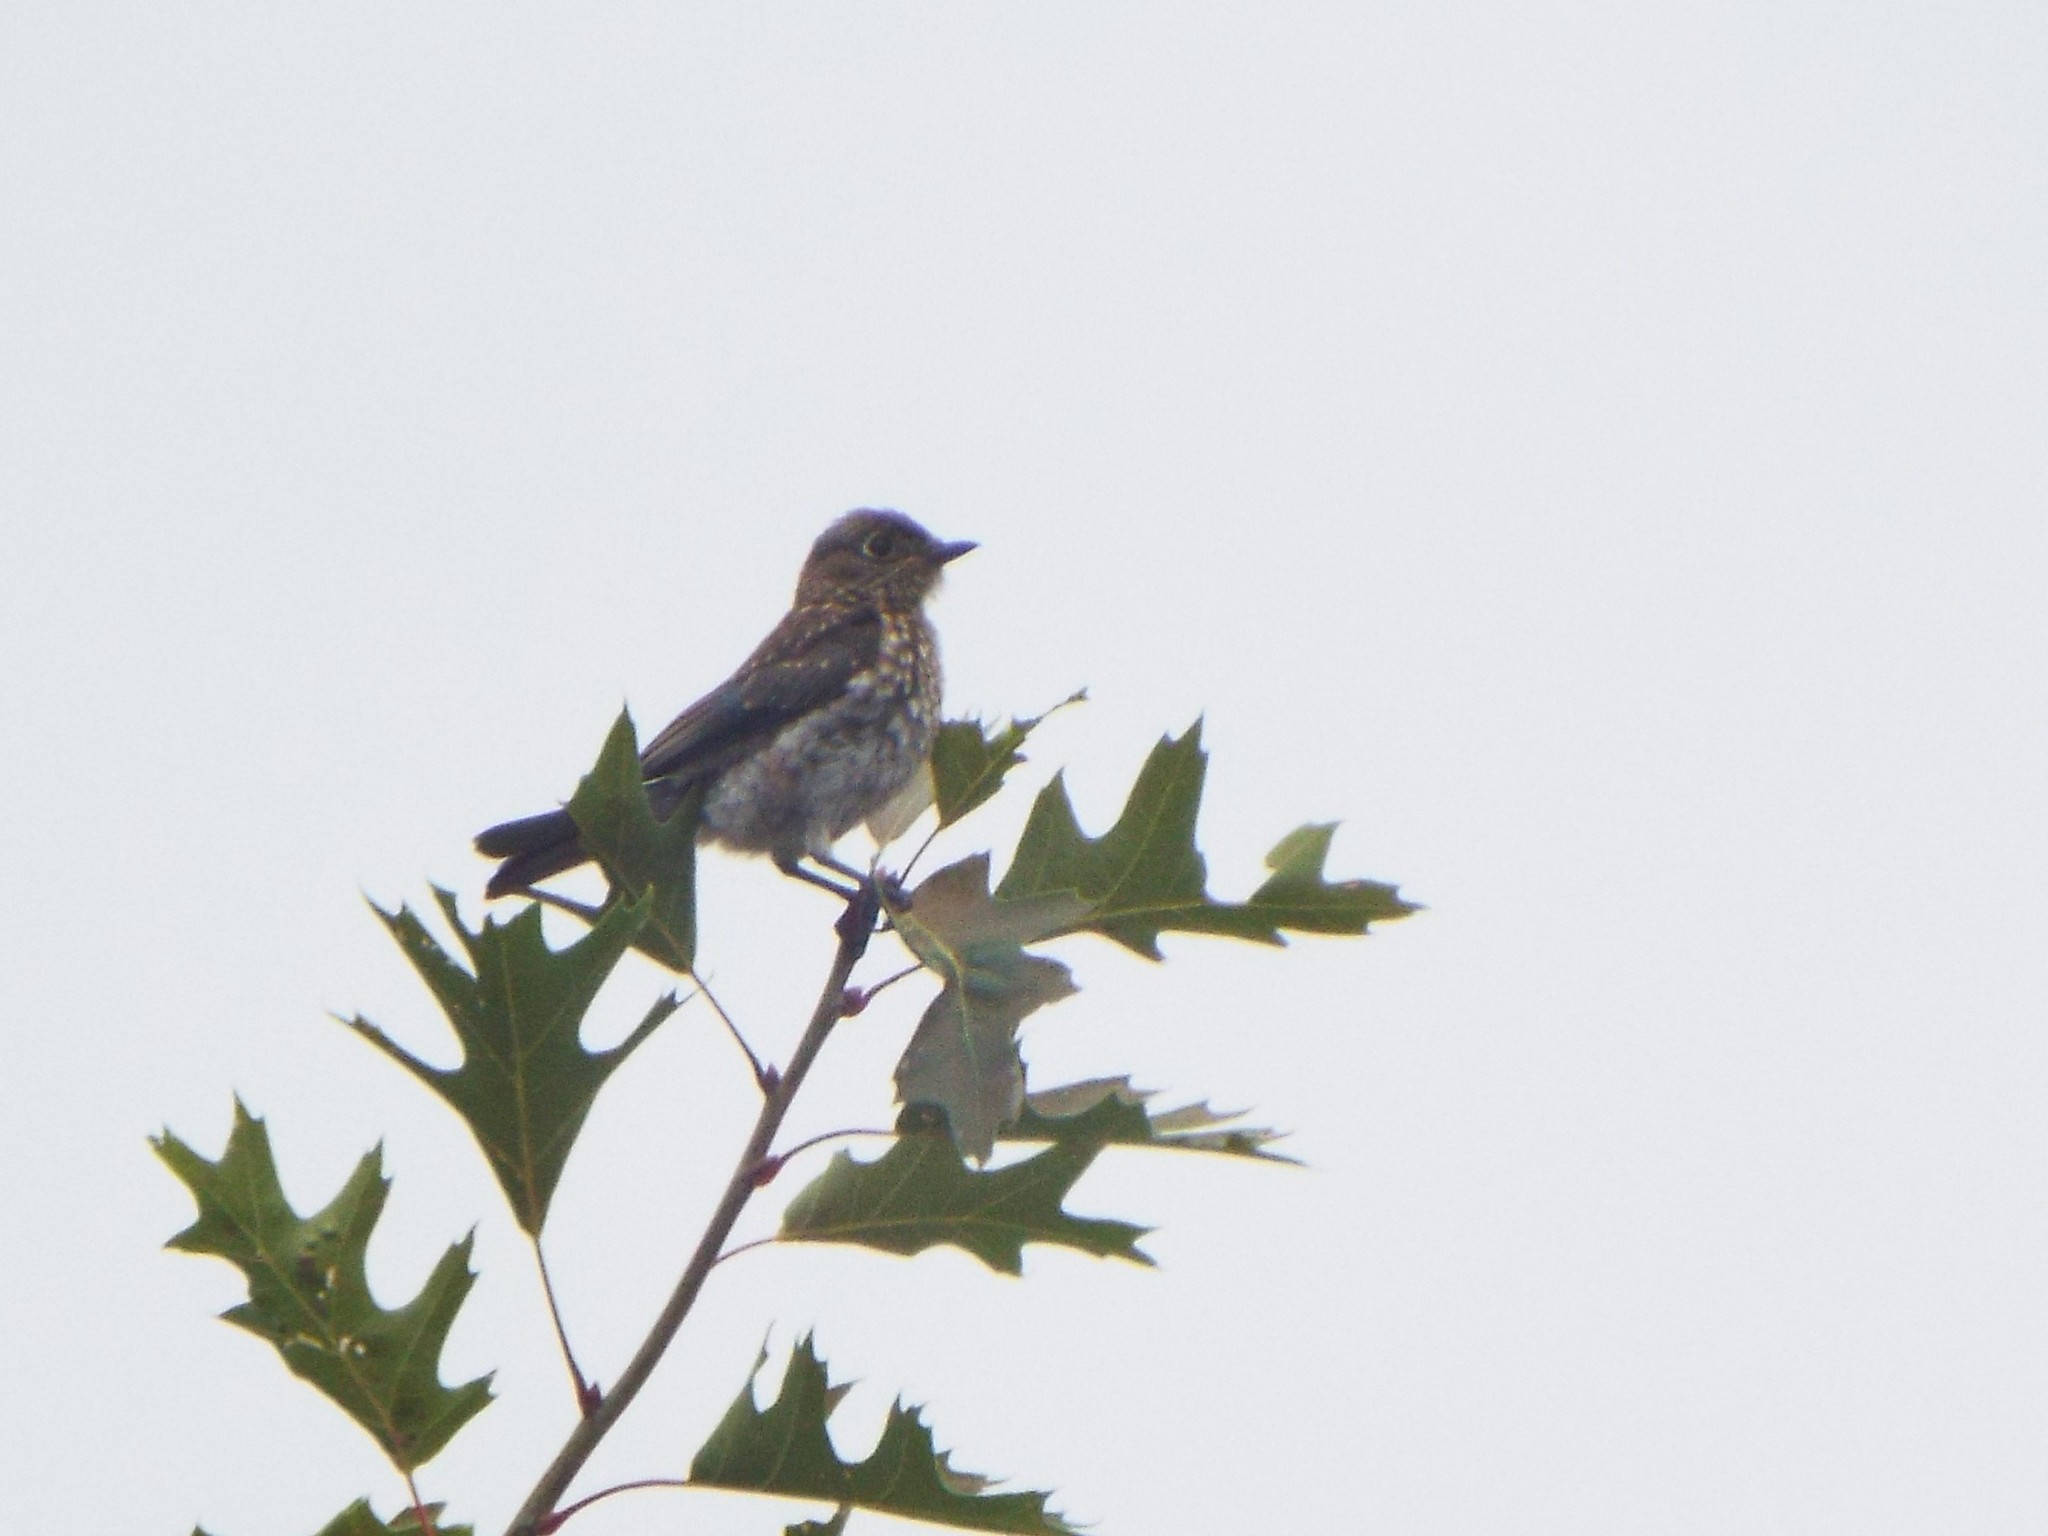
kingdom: Animalia
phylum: Chordata
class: Aves
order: Passeriformes
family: Turdidae
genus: Sialia
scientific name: Sialia sialis
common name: Eastern bluebird
